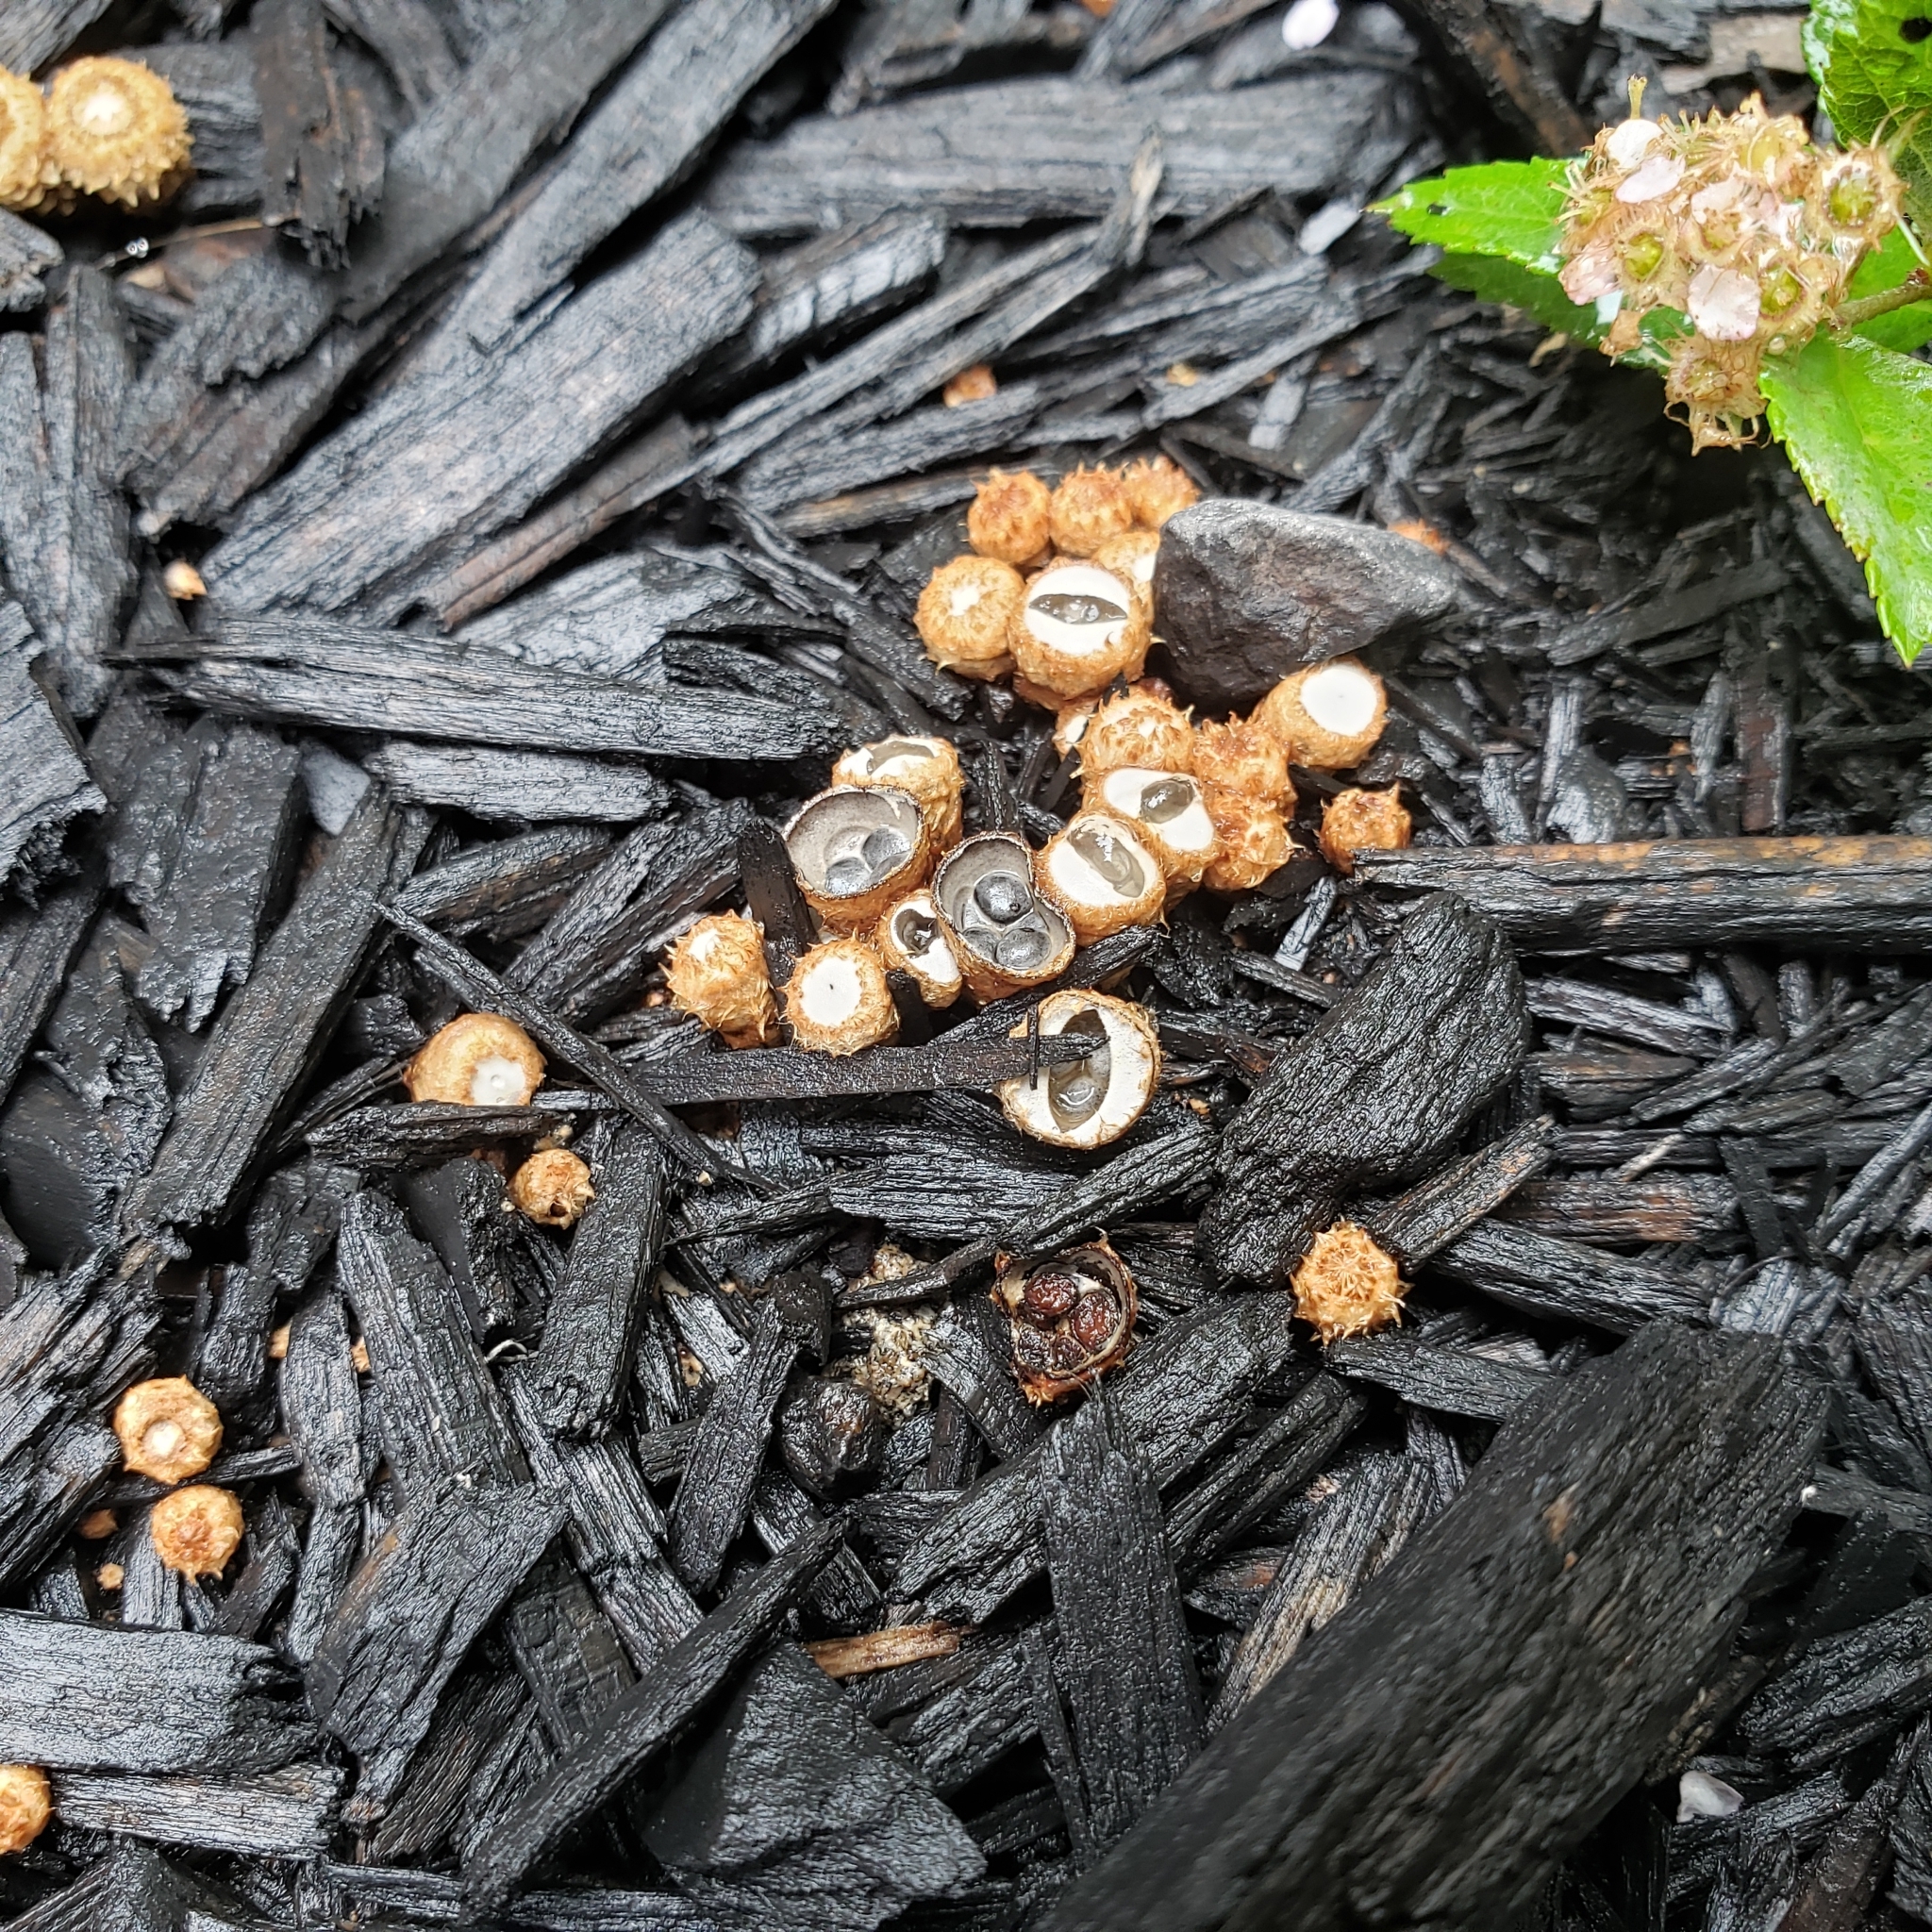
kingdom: Fungi
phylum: Basidiomycota
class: Agaricomycetes
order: Agaricales
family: Agaricaceae
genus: Cyathus
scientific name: Cyathus stercoreus
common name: Dung bird's nest
